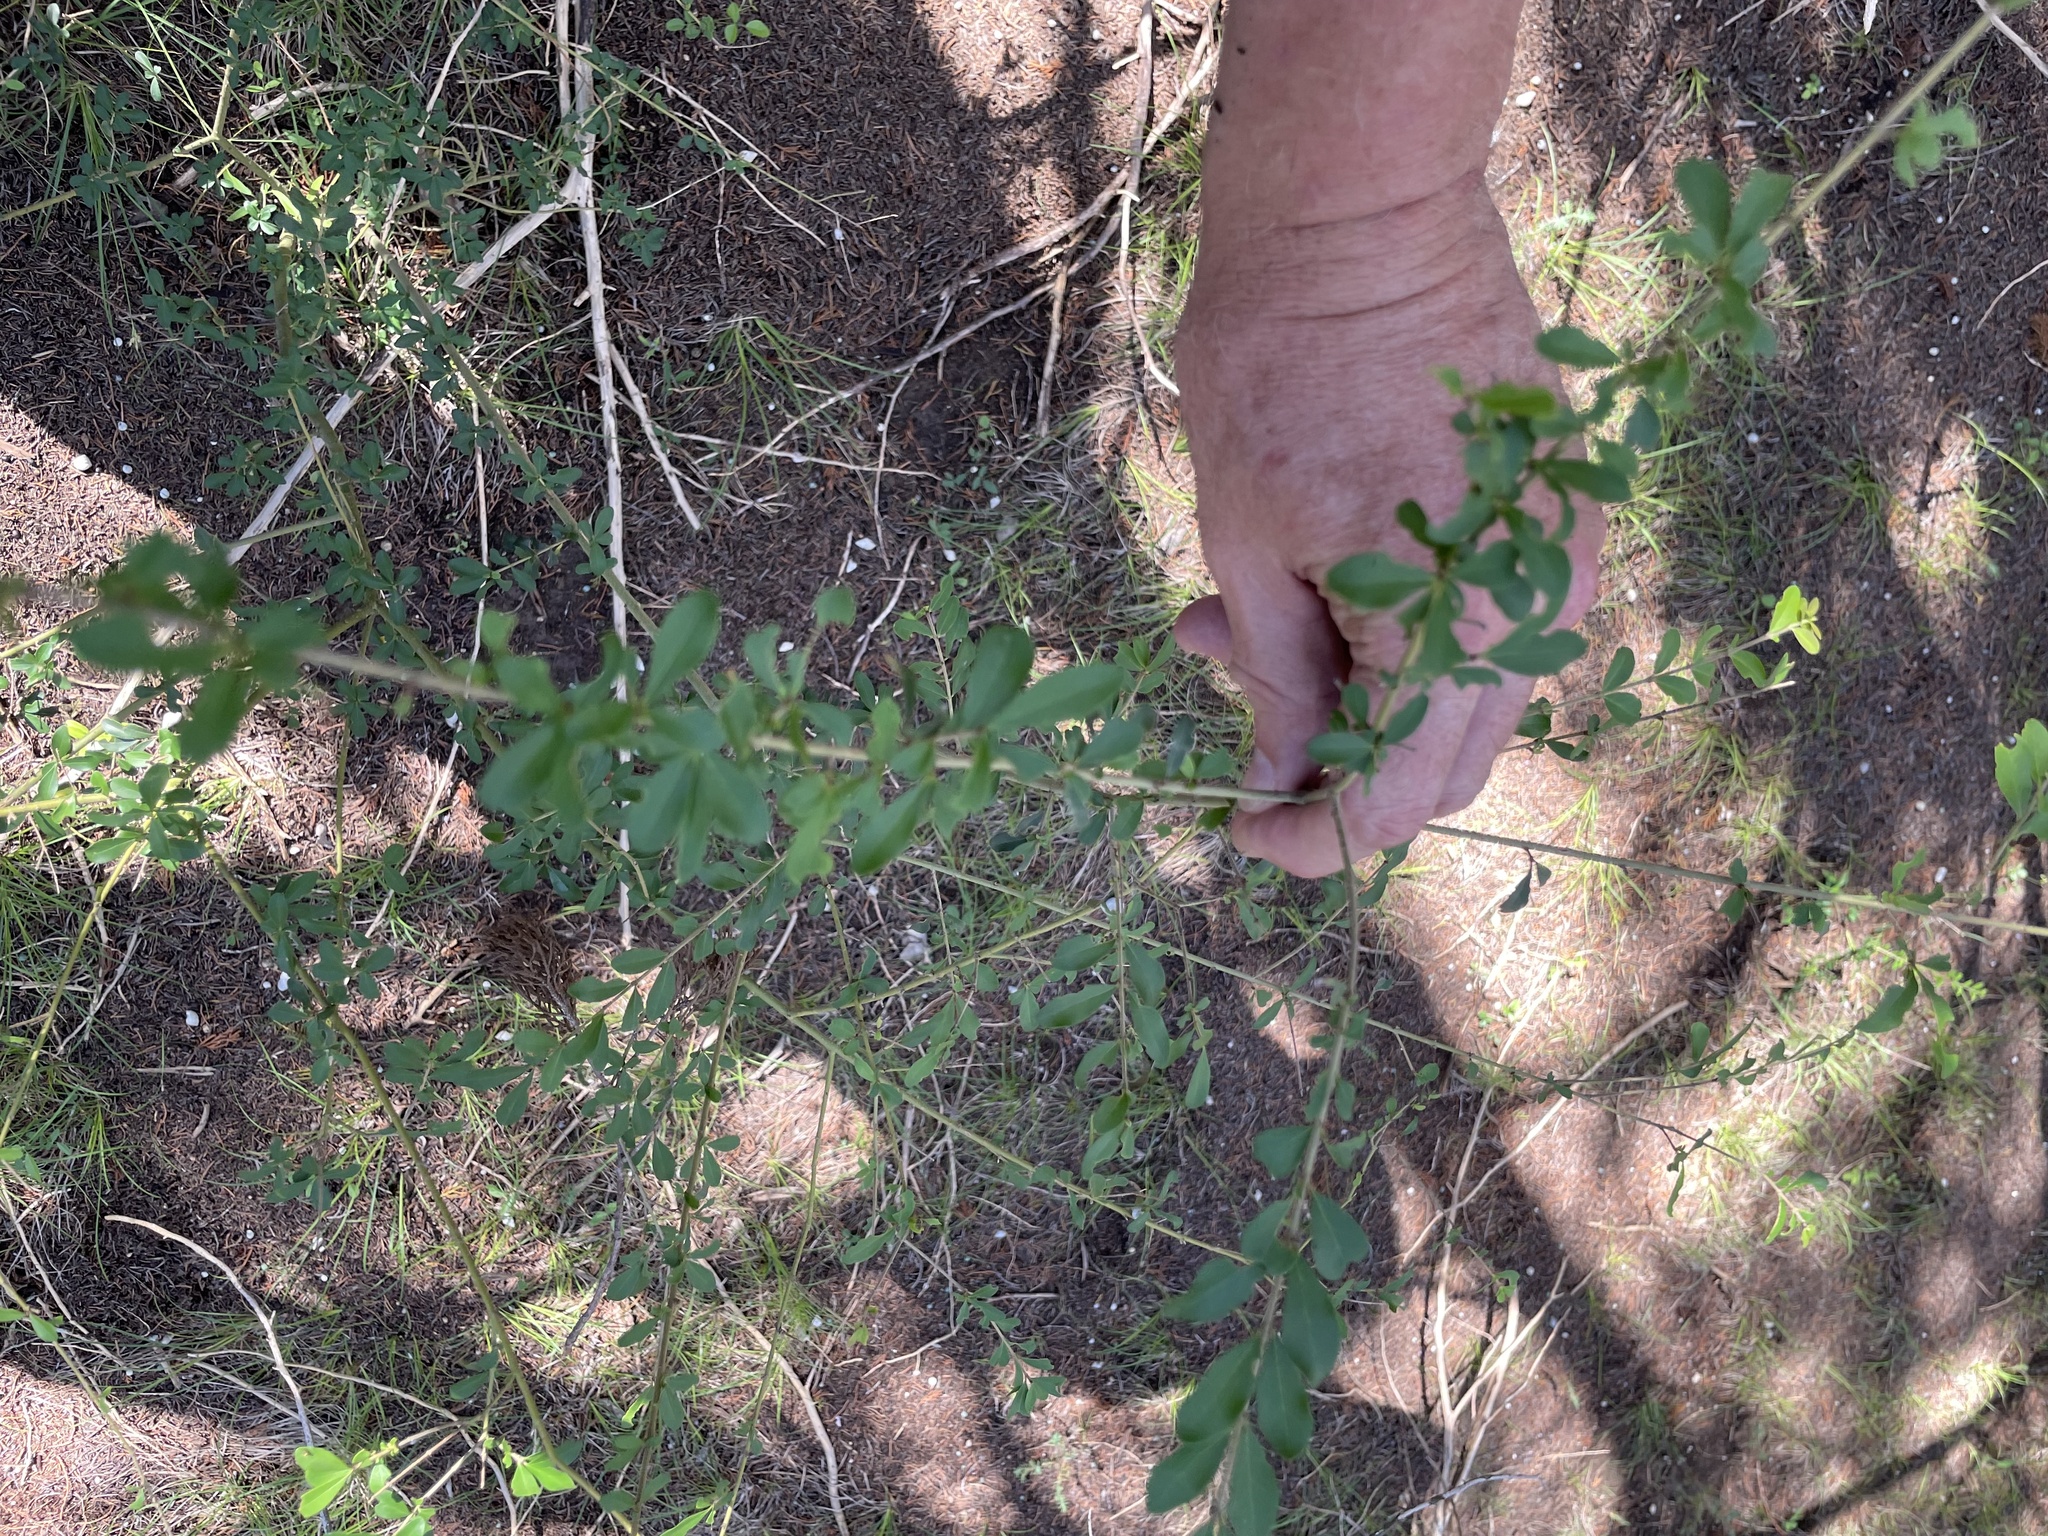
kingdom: Plantae
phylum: Tracheophyta
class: Magnoliopsida
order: Lamiales
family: Oleaceae
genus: Ligustrum
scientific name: Ligustrum quihoui
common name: Waxyleaf privet
